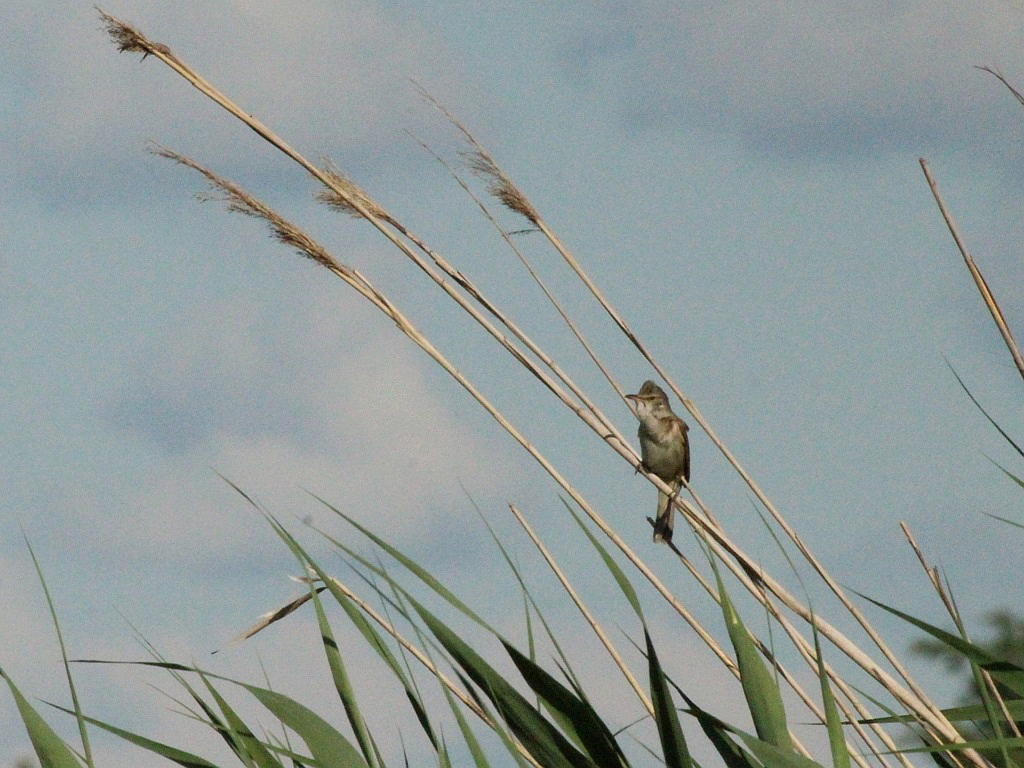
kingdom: Animalia
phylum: Chordata
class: Aves
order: Passeriformes
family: Acrocephalidae
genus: Acrocephalus
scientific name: Acrocephalus arundinaceus
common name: Great reed warbler
